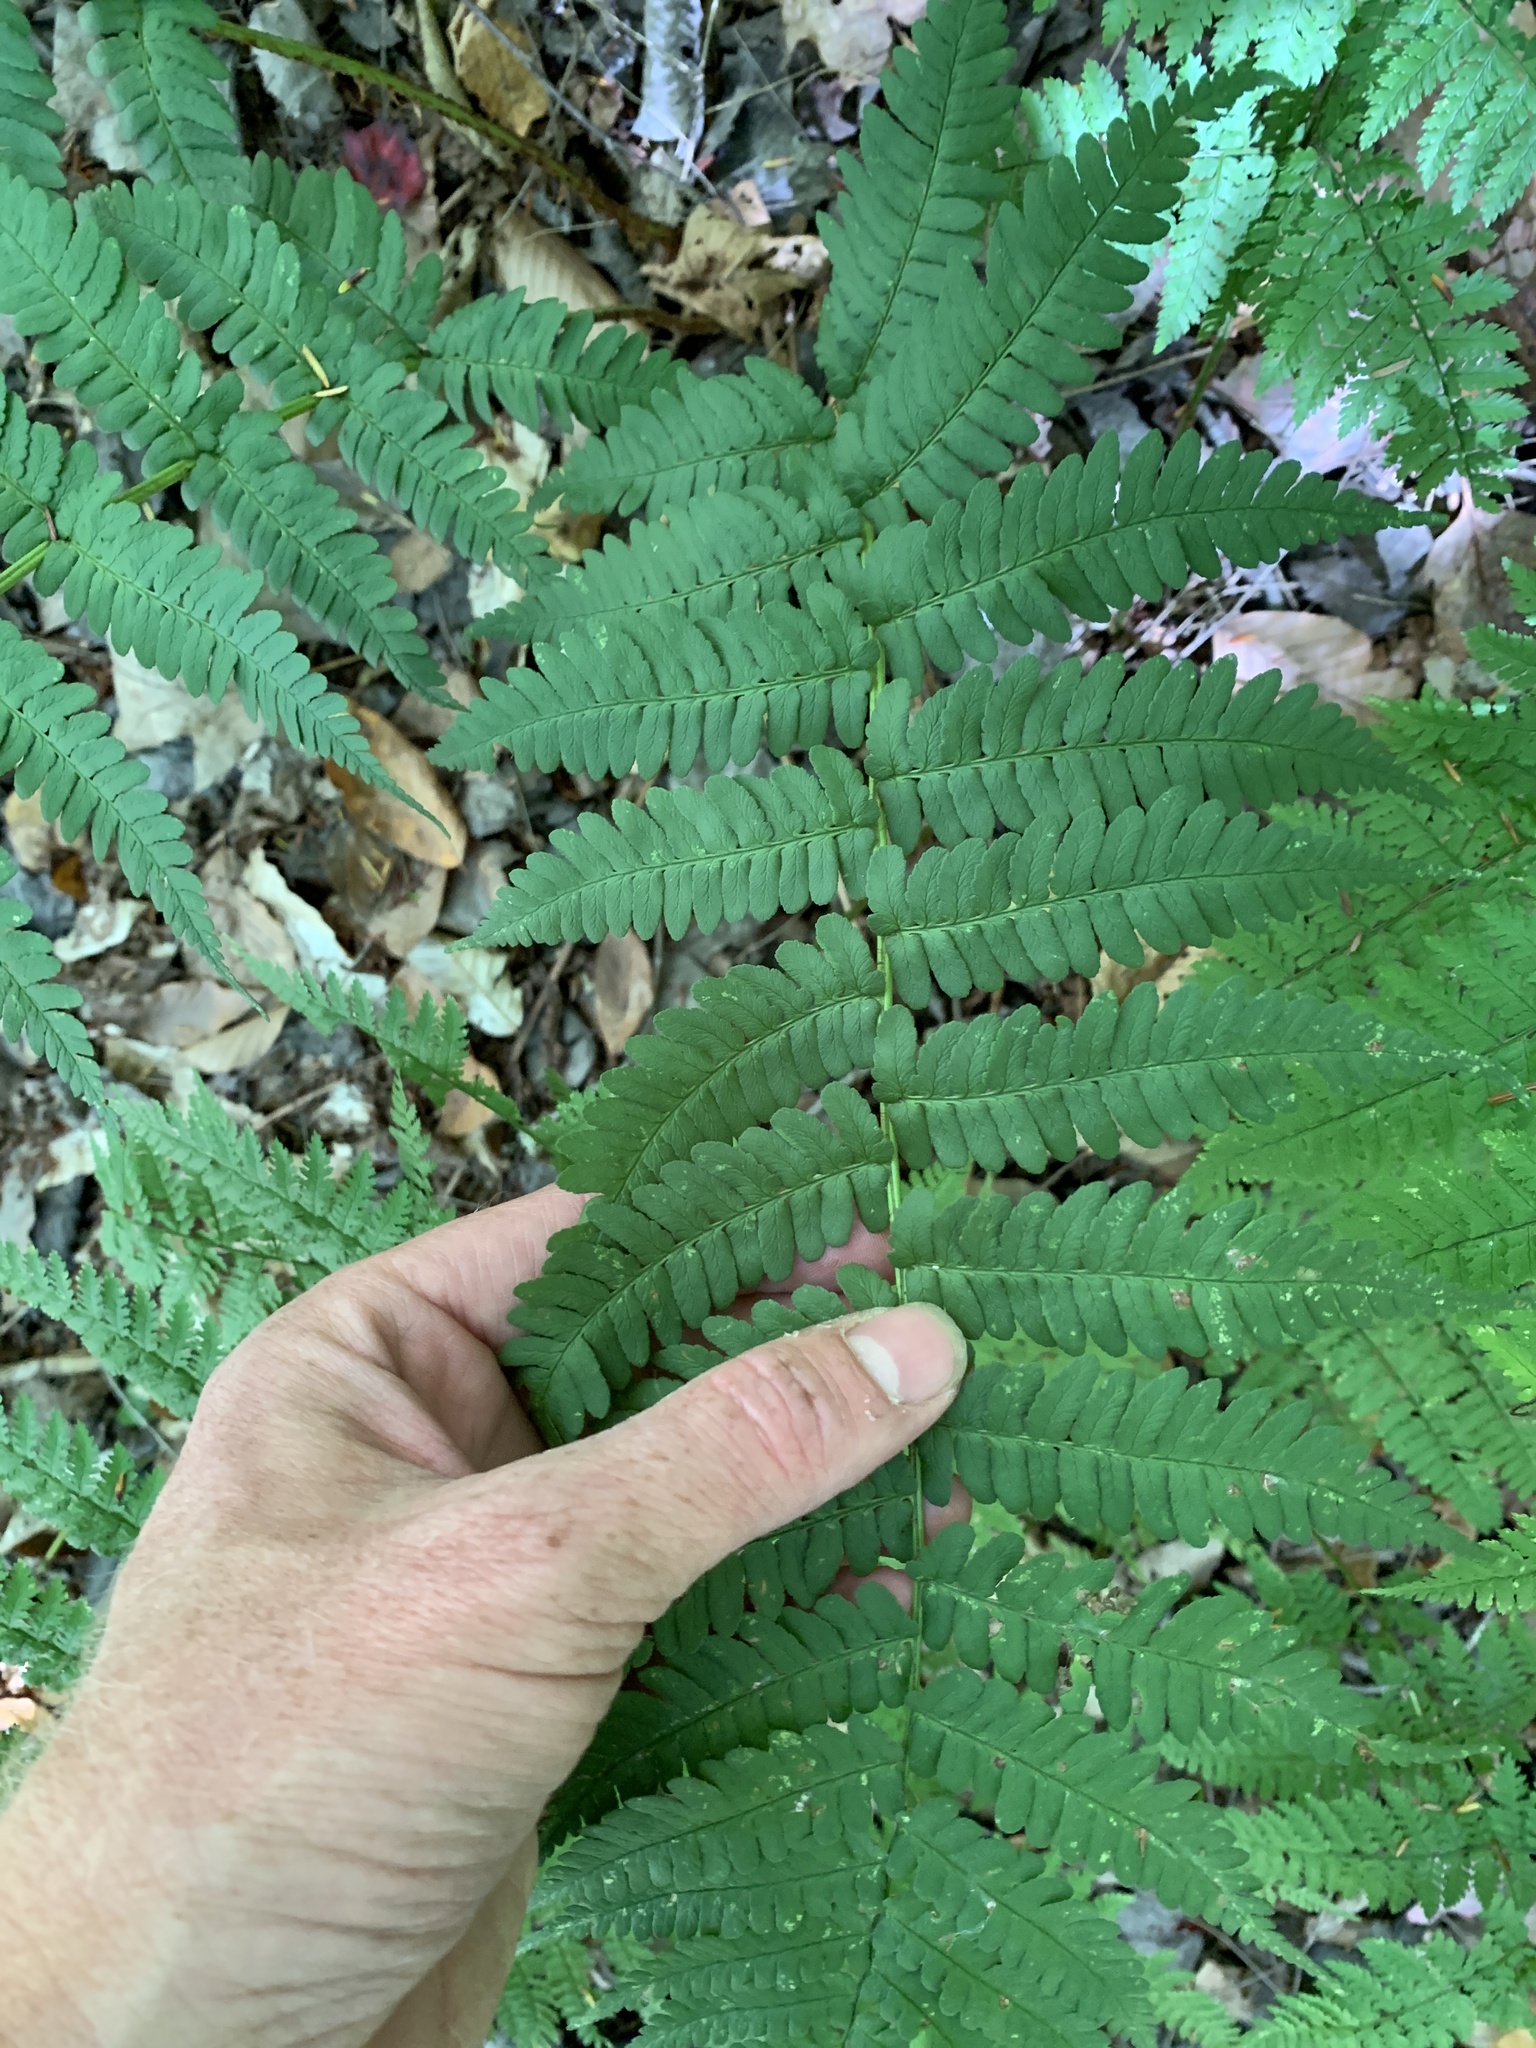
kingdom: Plantae
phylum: Tracheophyta
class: Polypodiopsida
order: Polypodiales
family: Dryopteridaceae
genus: Dryopteris
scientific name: Dryopteris marginalis
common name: Marginal wood fern
